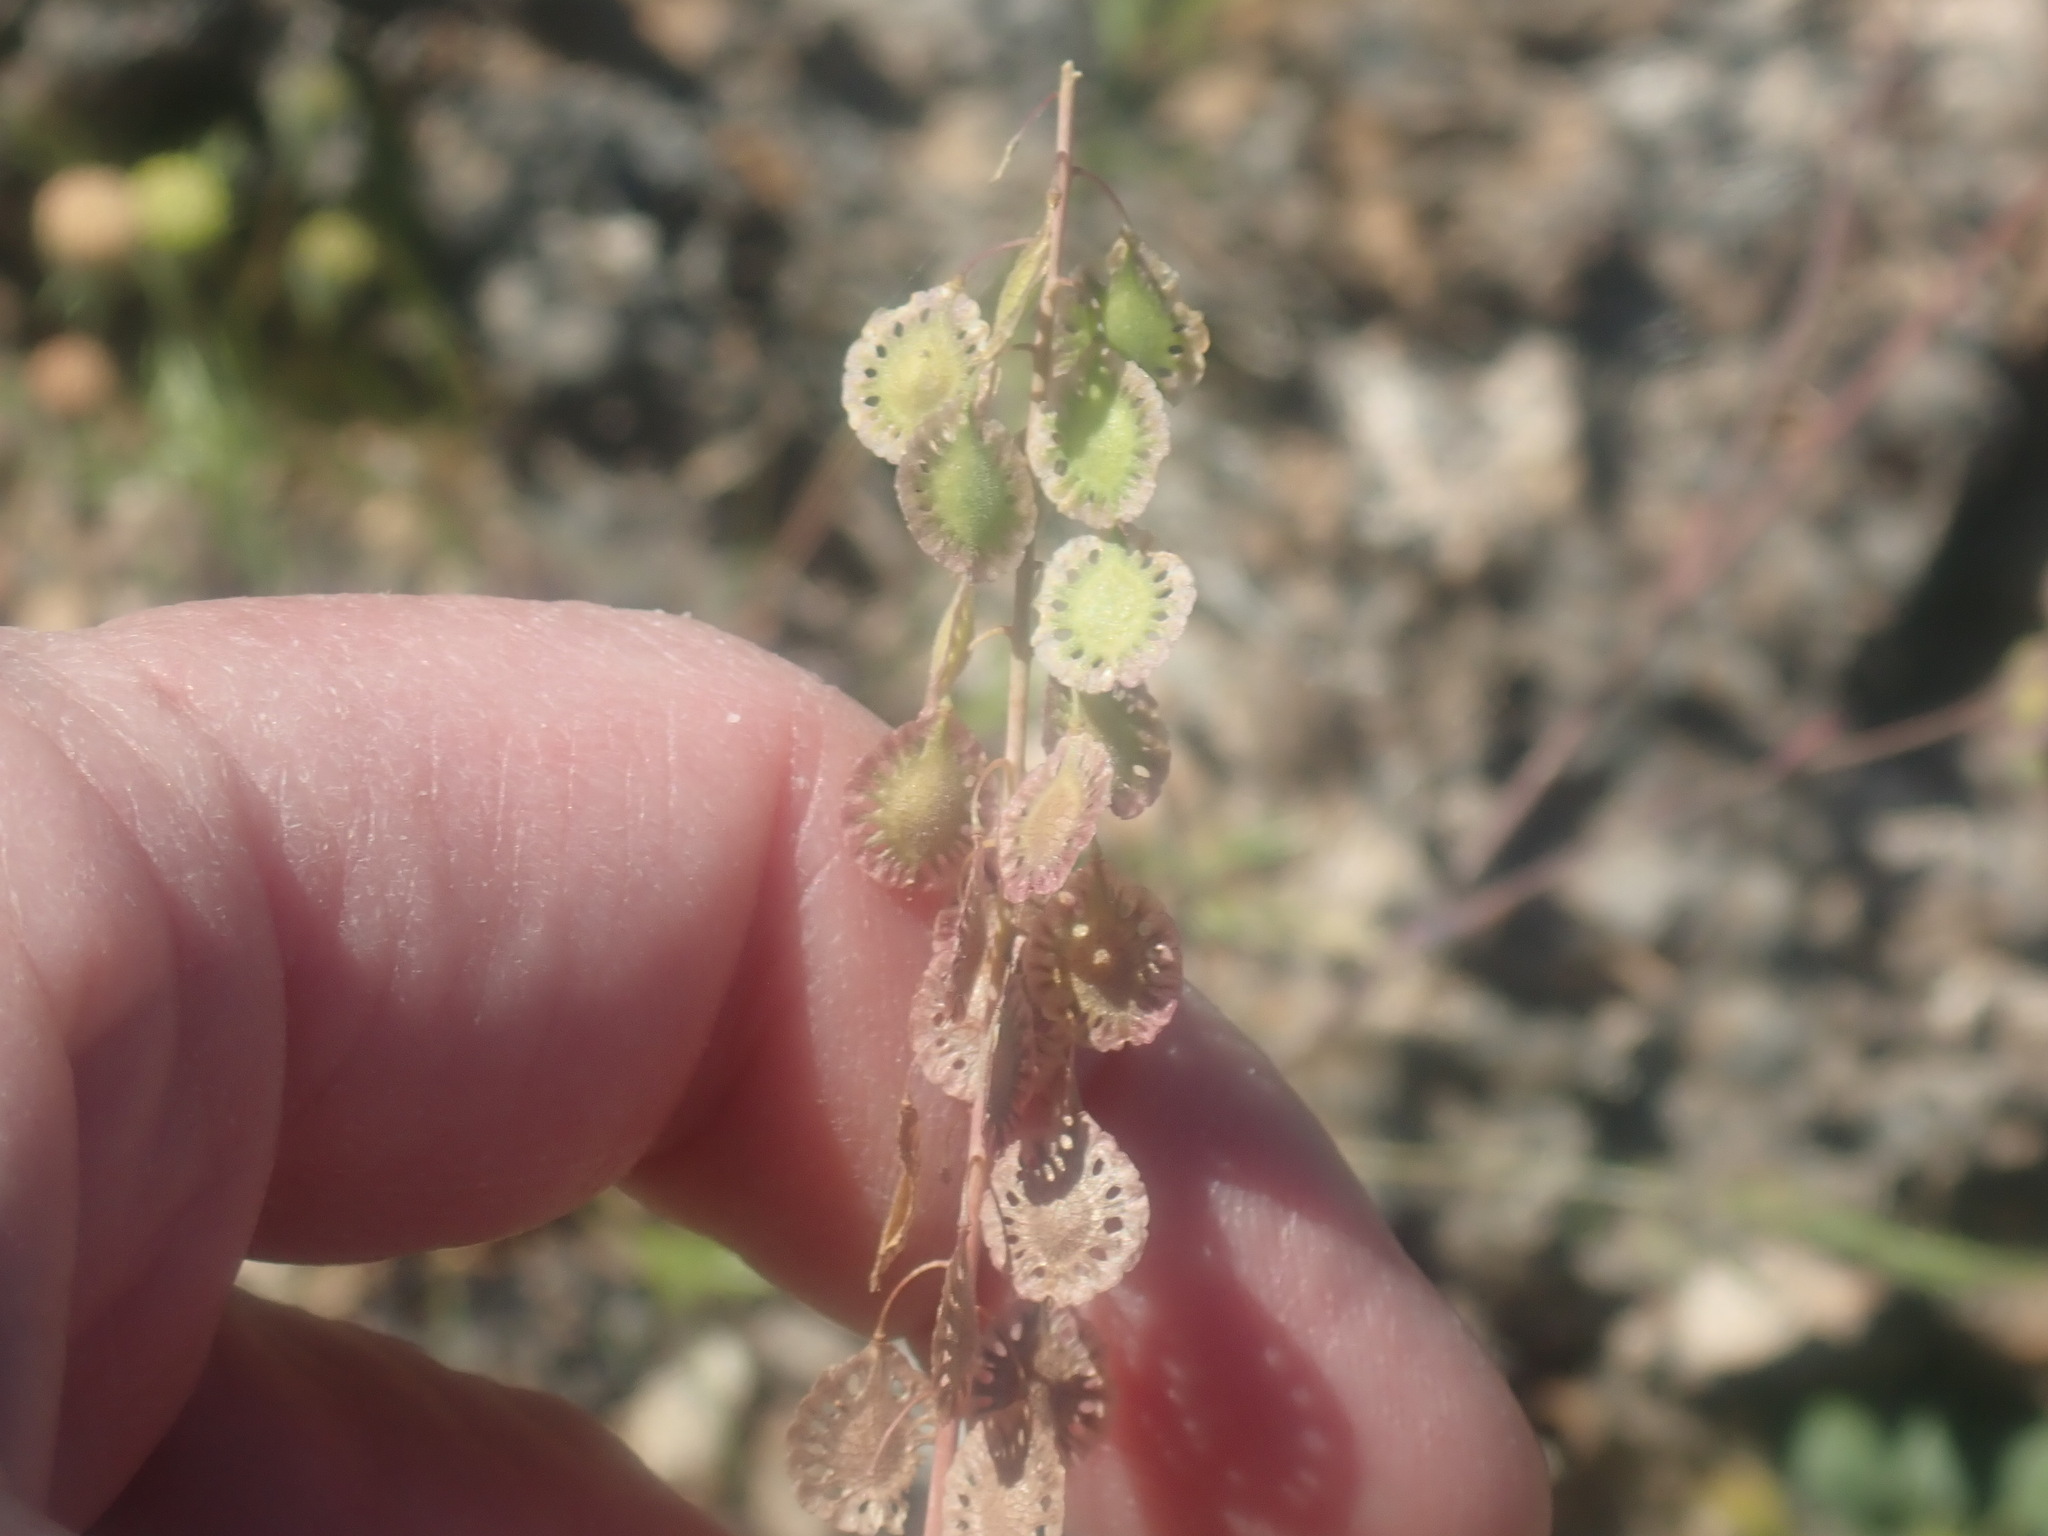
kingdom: Plantae
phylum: Tracheophyta
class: Magnoliopsida
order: Brassicales
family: Brassicaceae
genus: Thysanocarpus
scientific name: Thysanocarpus curvipes
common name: Sand fringepod
